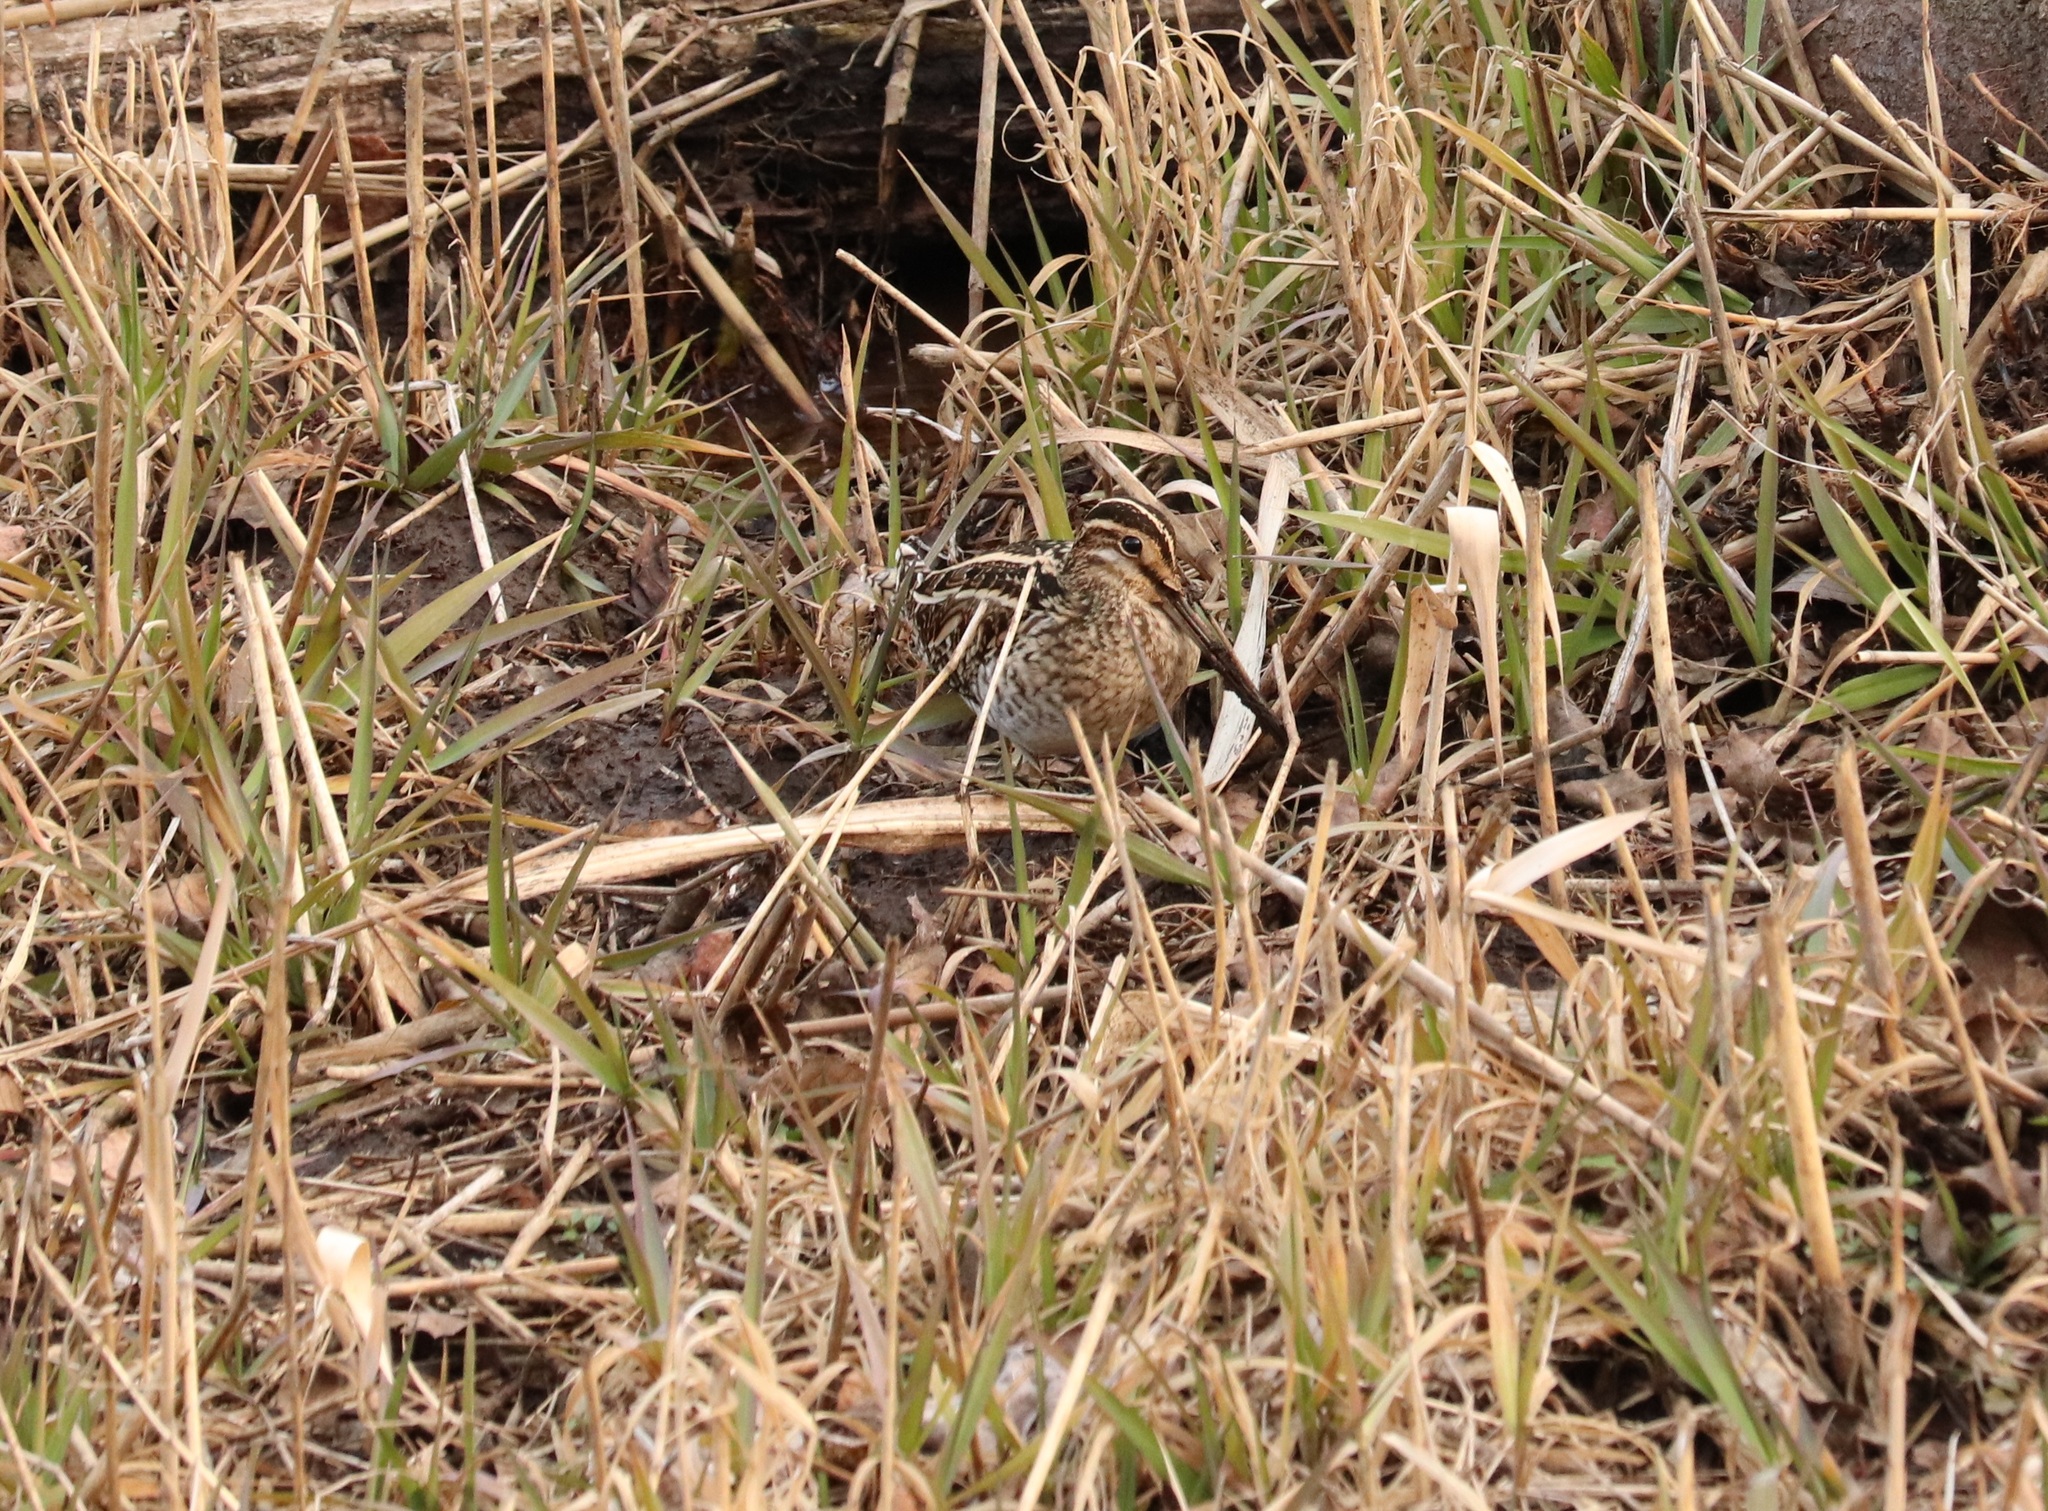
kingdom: Animalia
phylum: Chordata
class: Aves
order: Charadriiformes
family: Scolopacidae
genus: Gallinago
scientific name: Gallinago gallinago
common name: Common snipe
